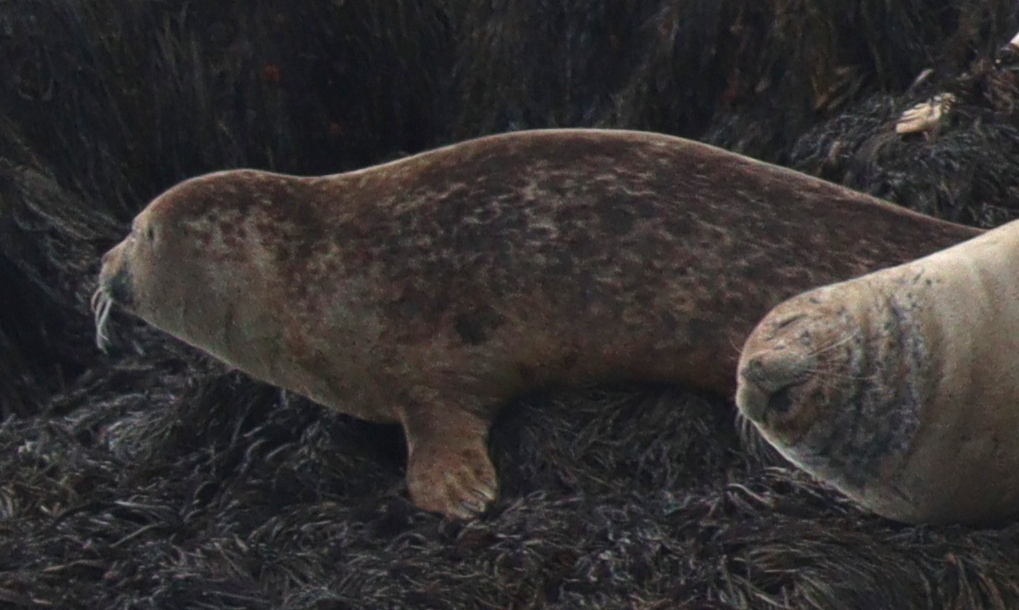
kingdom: Animalia
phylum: Chordata
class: Mammalia
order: Carnivora
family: Phocidae
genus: Phoca
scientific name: Phoca vitulina
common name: Harbor seal
